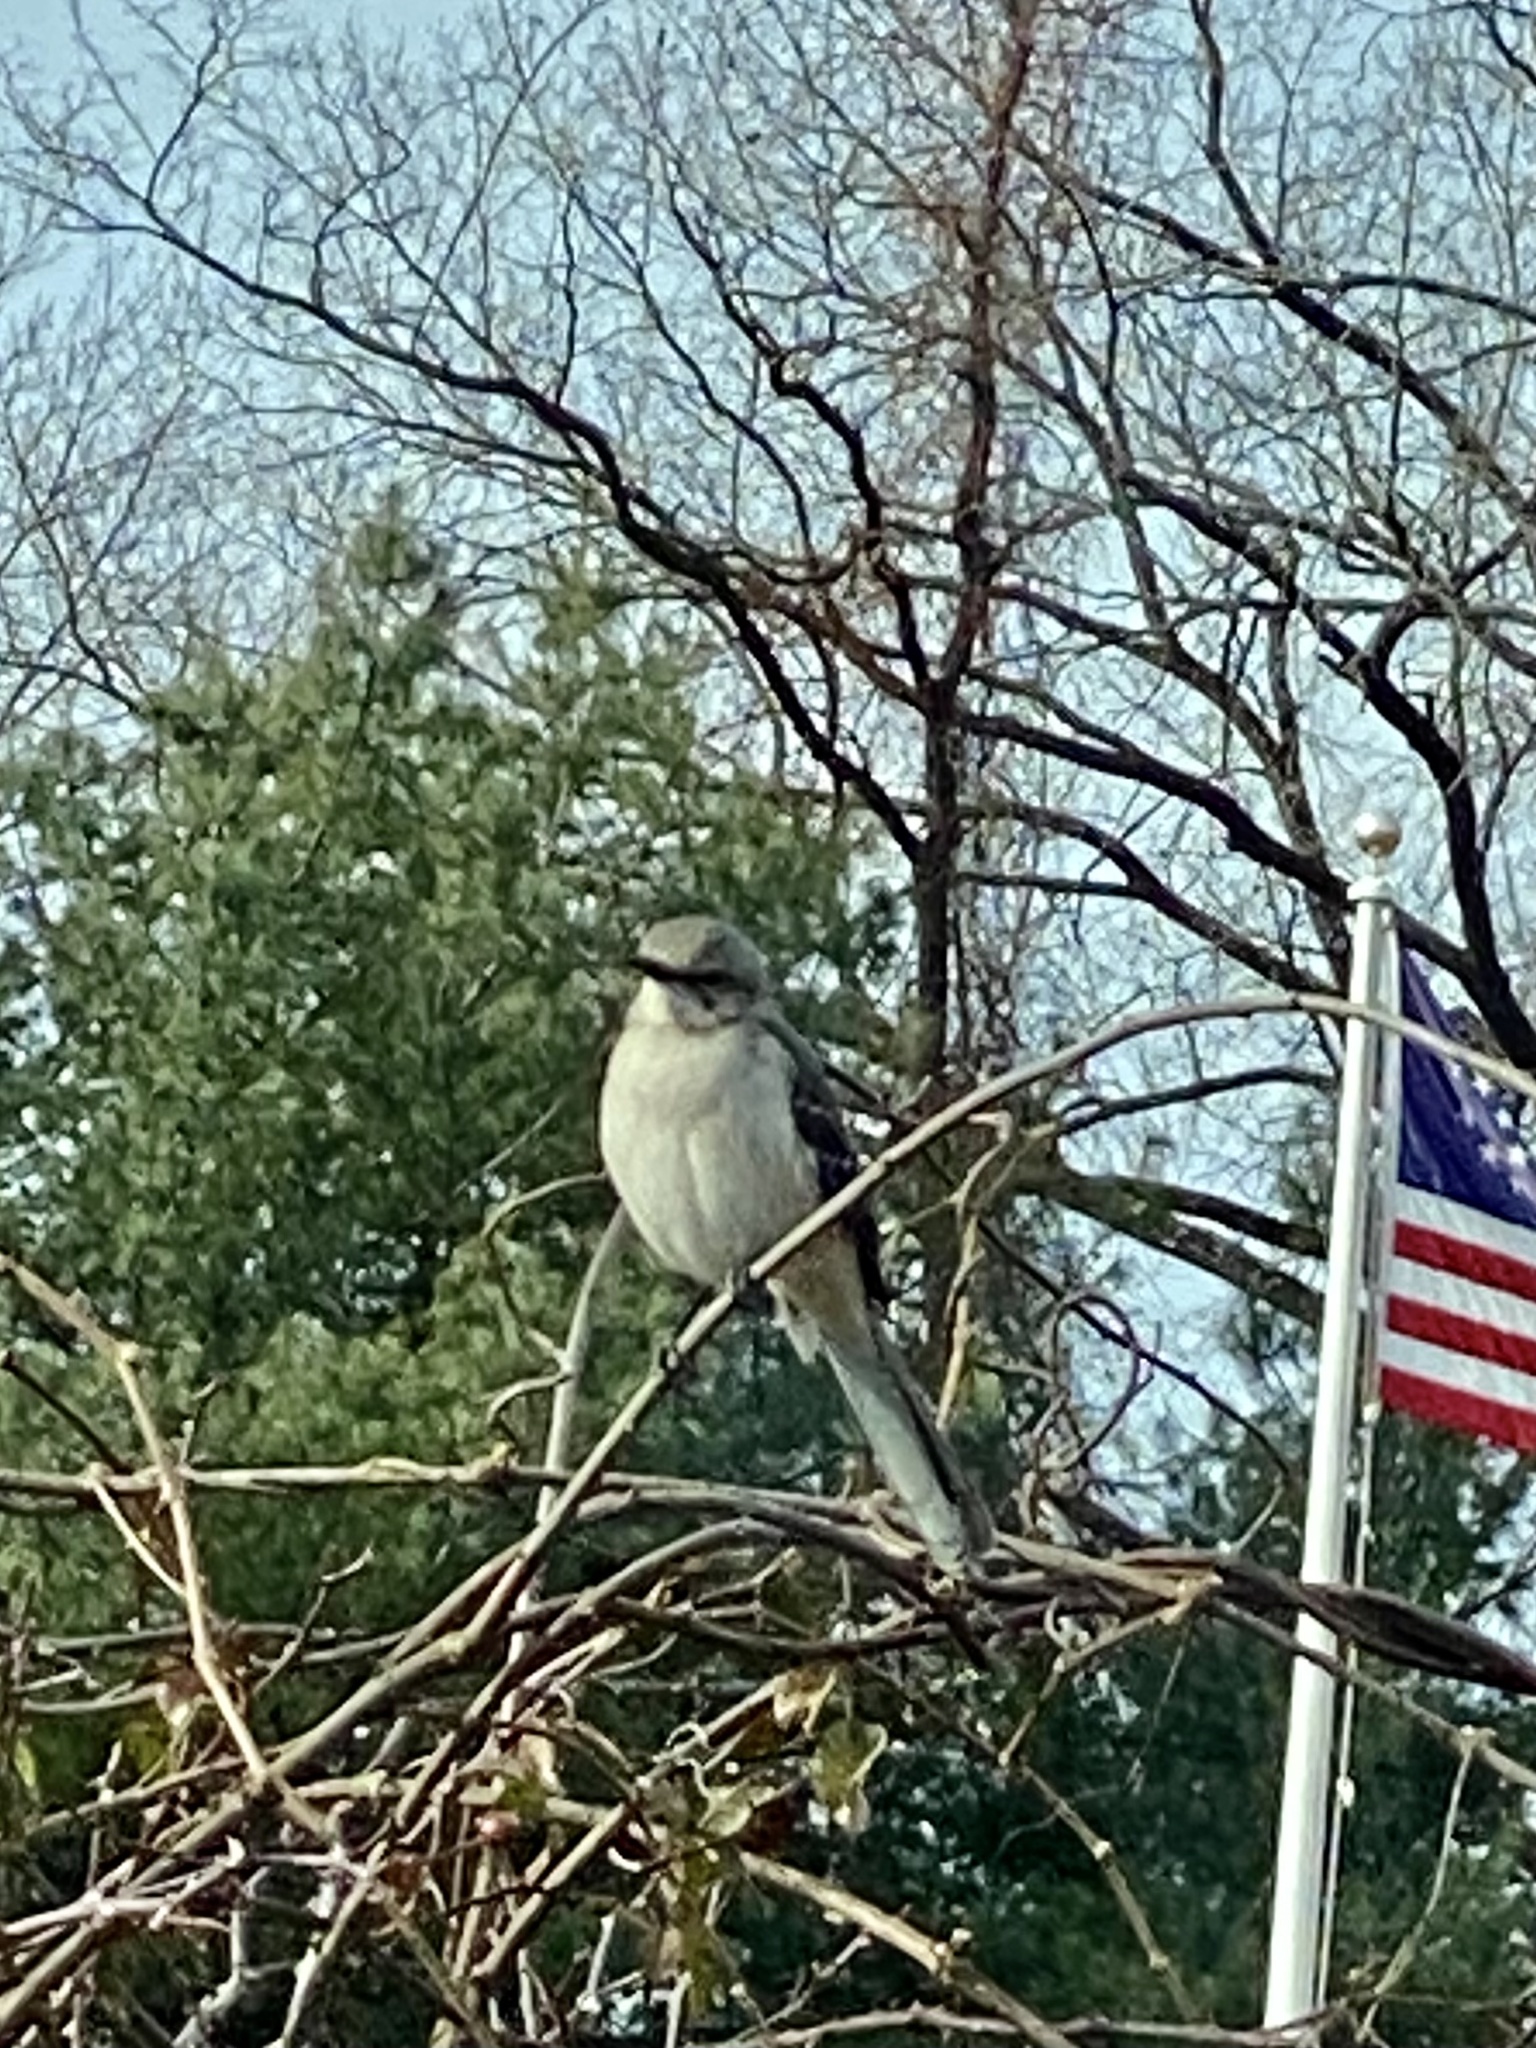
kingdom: Animalia
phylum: Chordata
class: Aves
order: Passeriformes
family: Mimidae
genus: Mimus
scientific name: Mimus polyglottos
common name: Northern mockingbird
